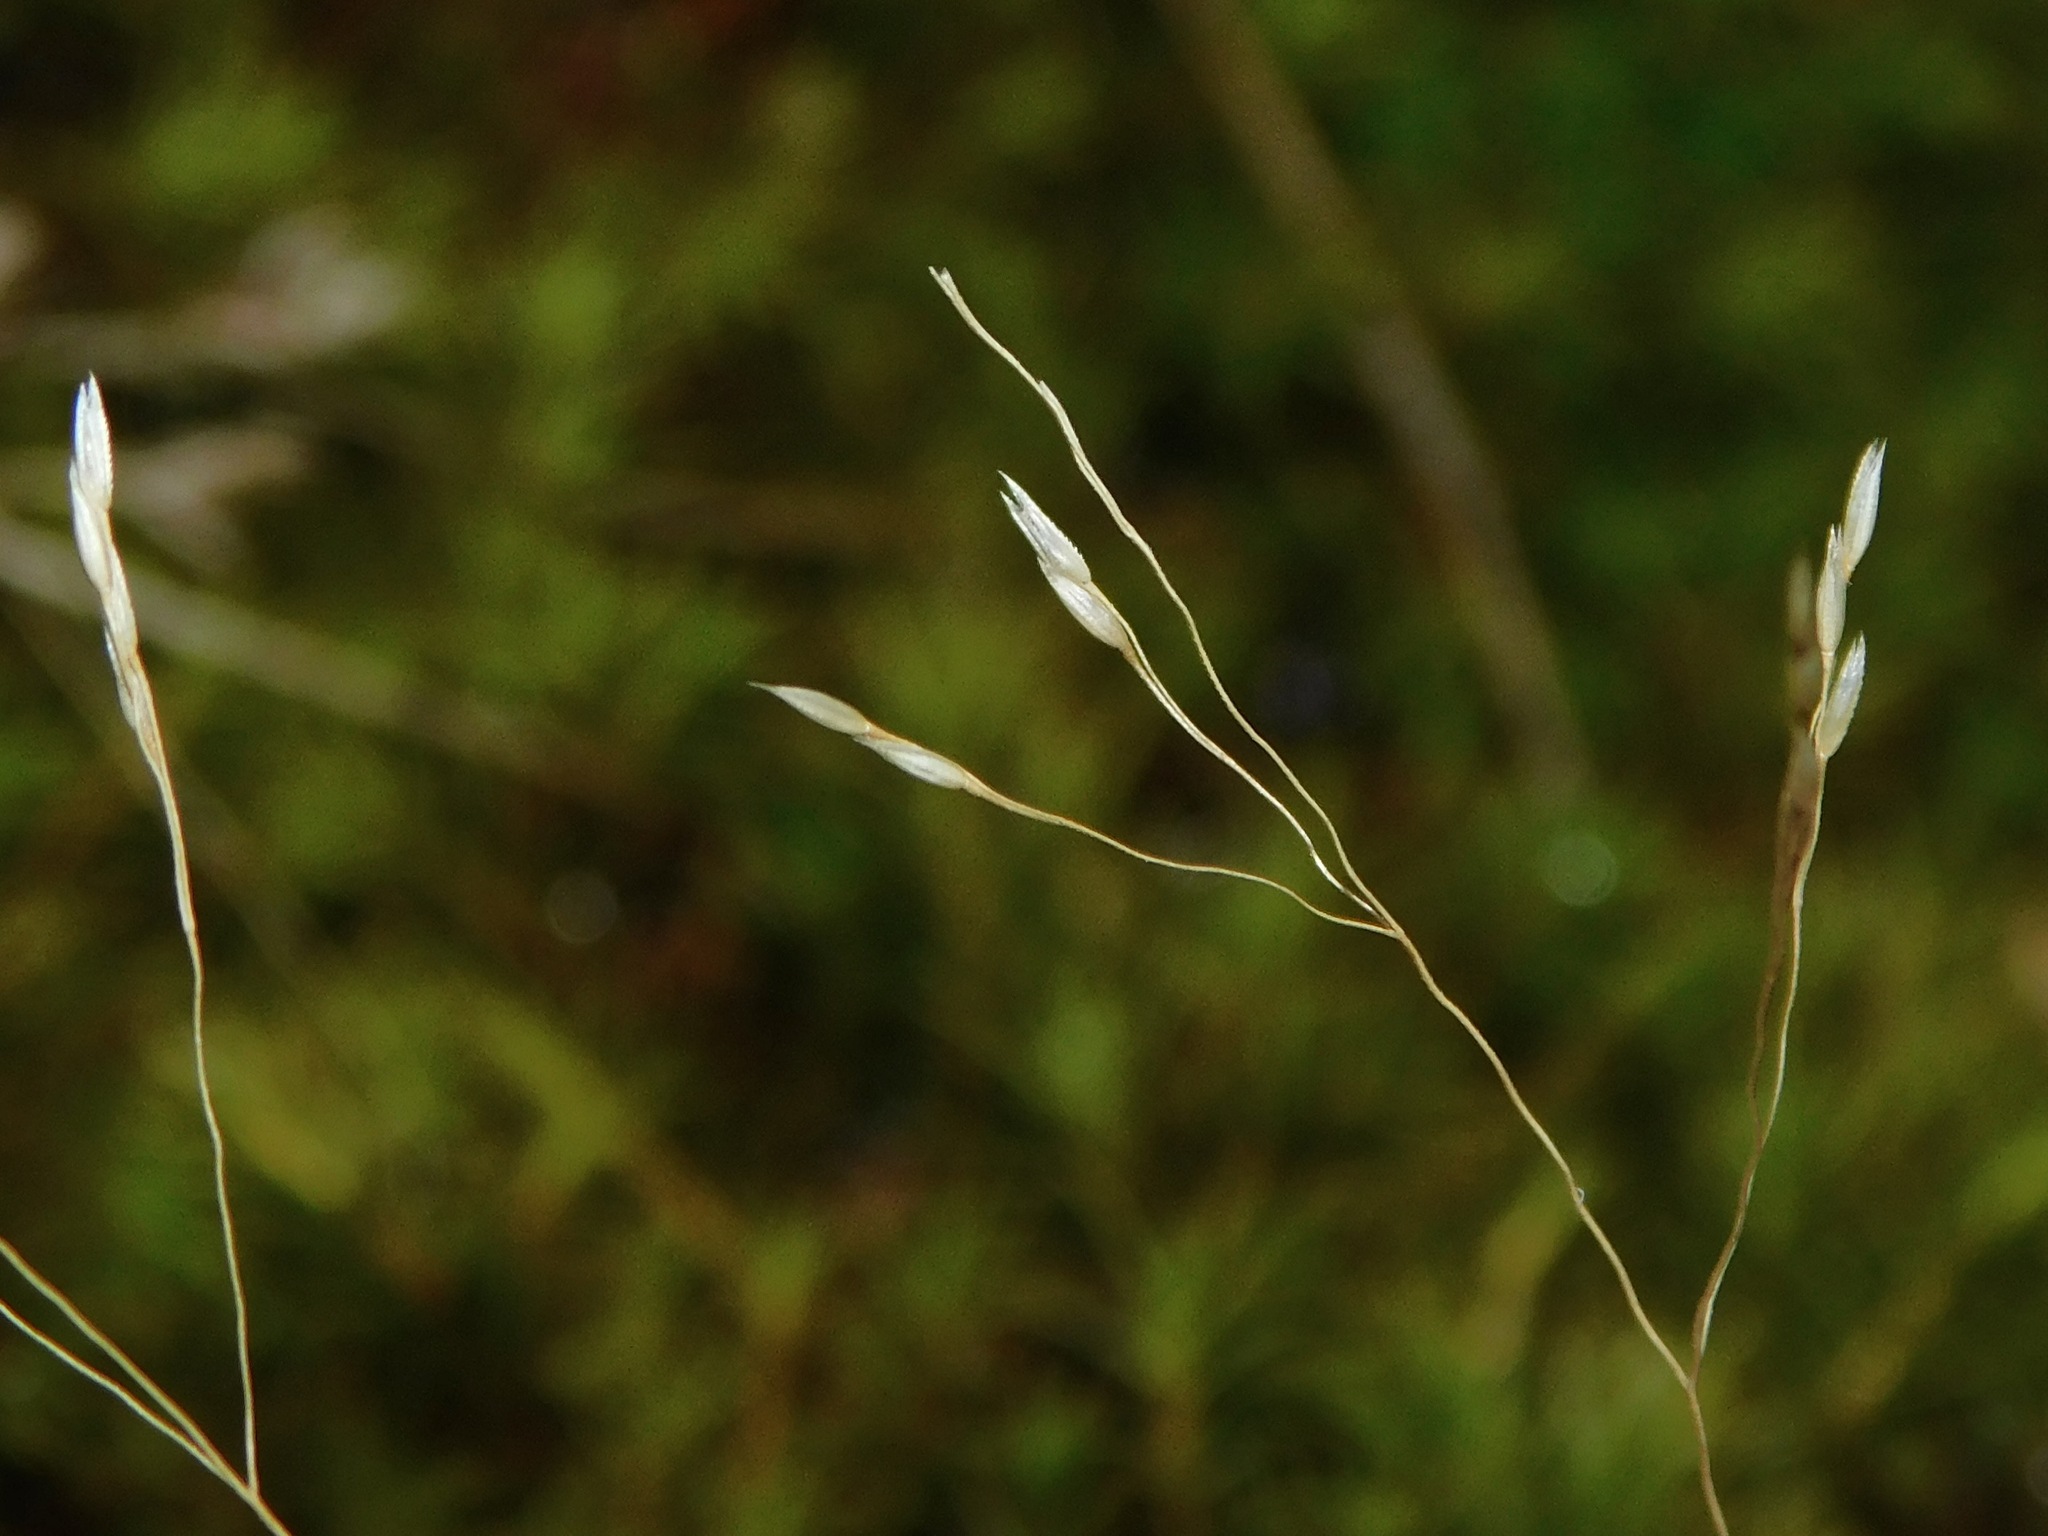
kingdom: Plantae
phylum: Tracheophyta
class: Liliopsida
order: Poales
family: Poaceae
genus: Agrostis
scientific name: Agrostis scabra
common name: Rough bent
